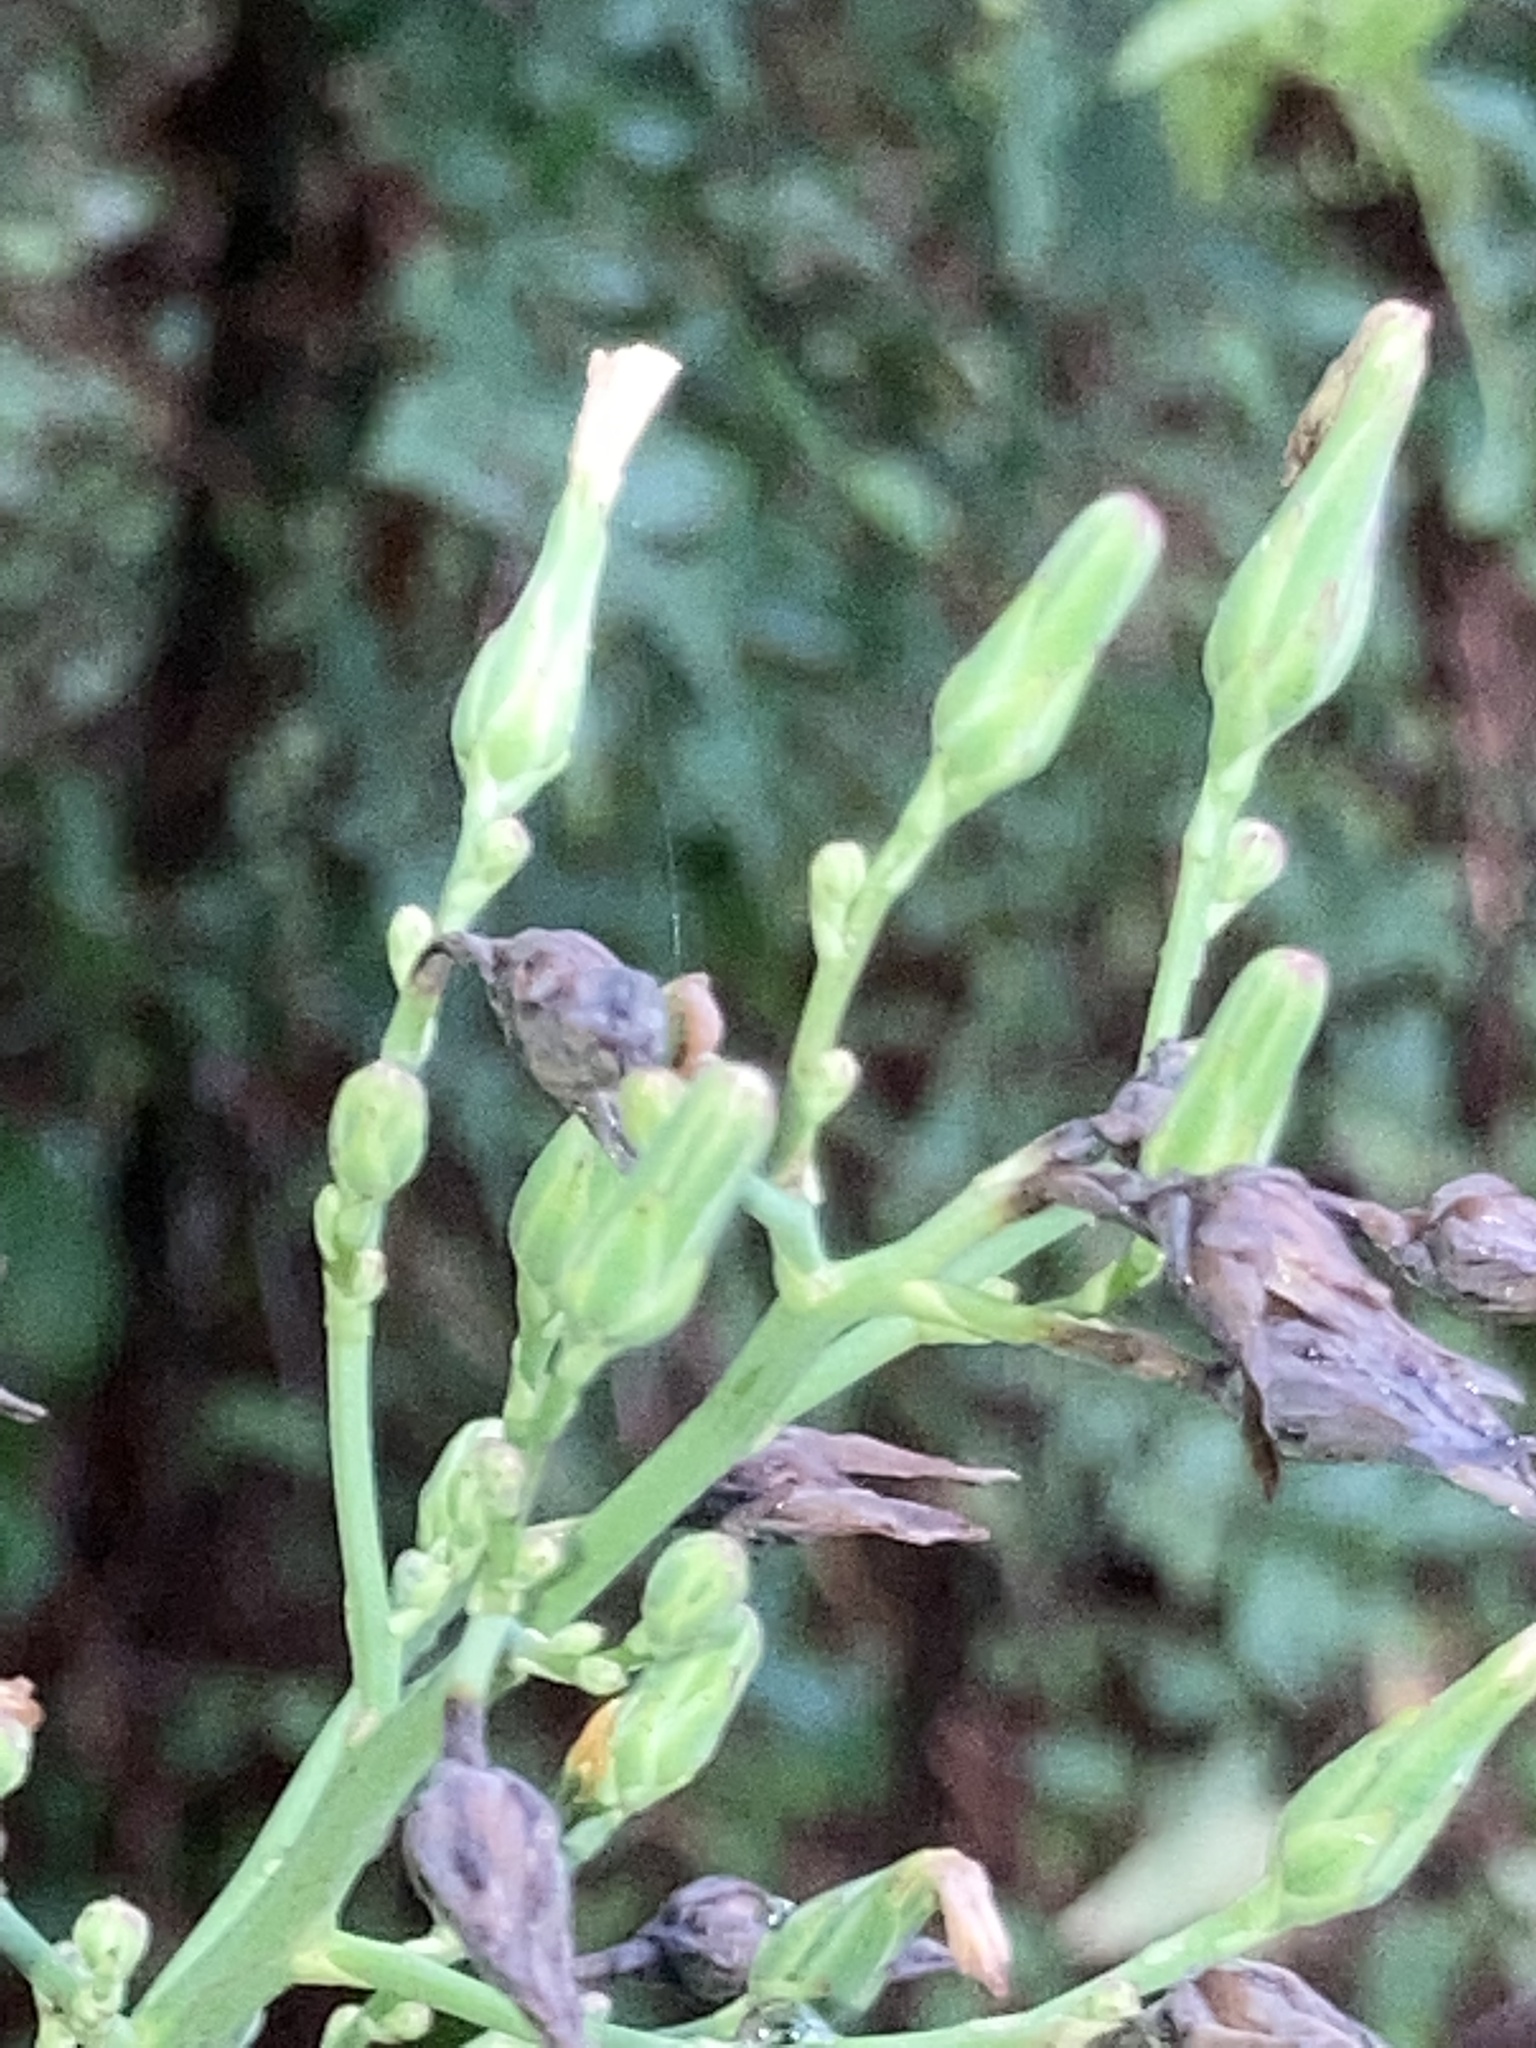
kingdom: Plantae
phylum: Tracheophyta
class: Magnoliopsida
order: Asterales
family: Asteraceae
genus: Lactuca
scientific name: Lactuca canadensis
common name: Canada lettuce
